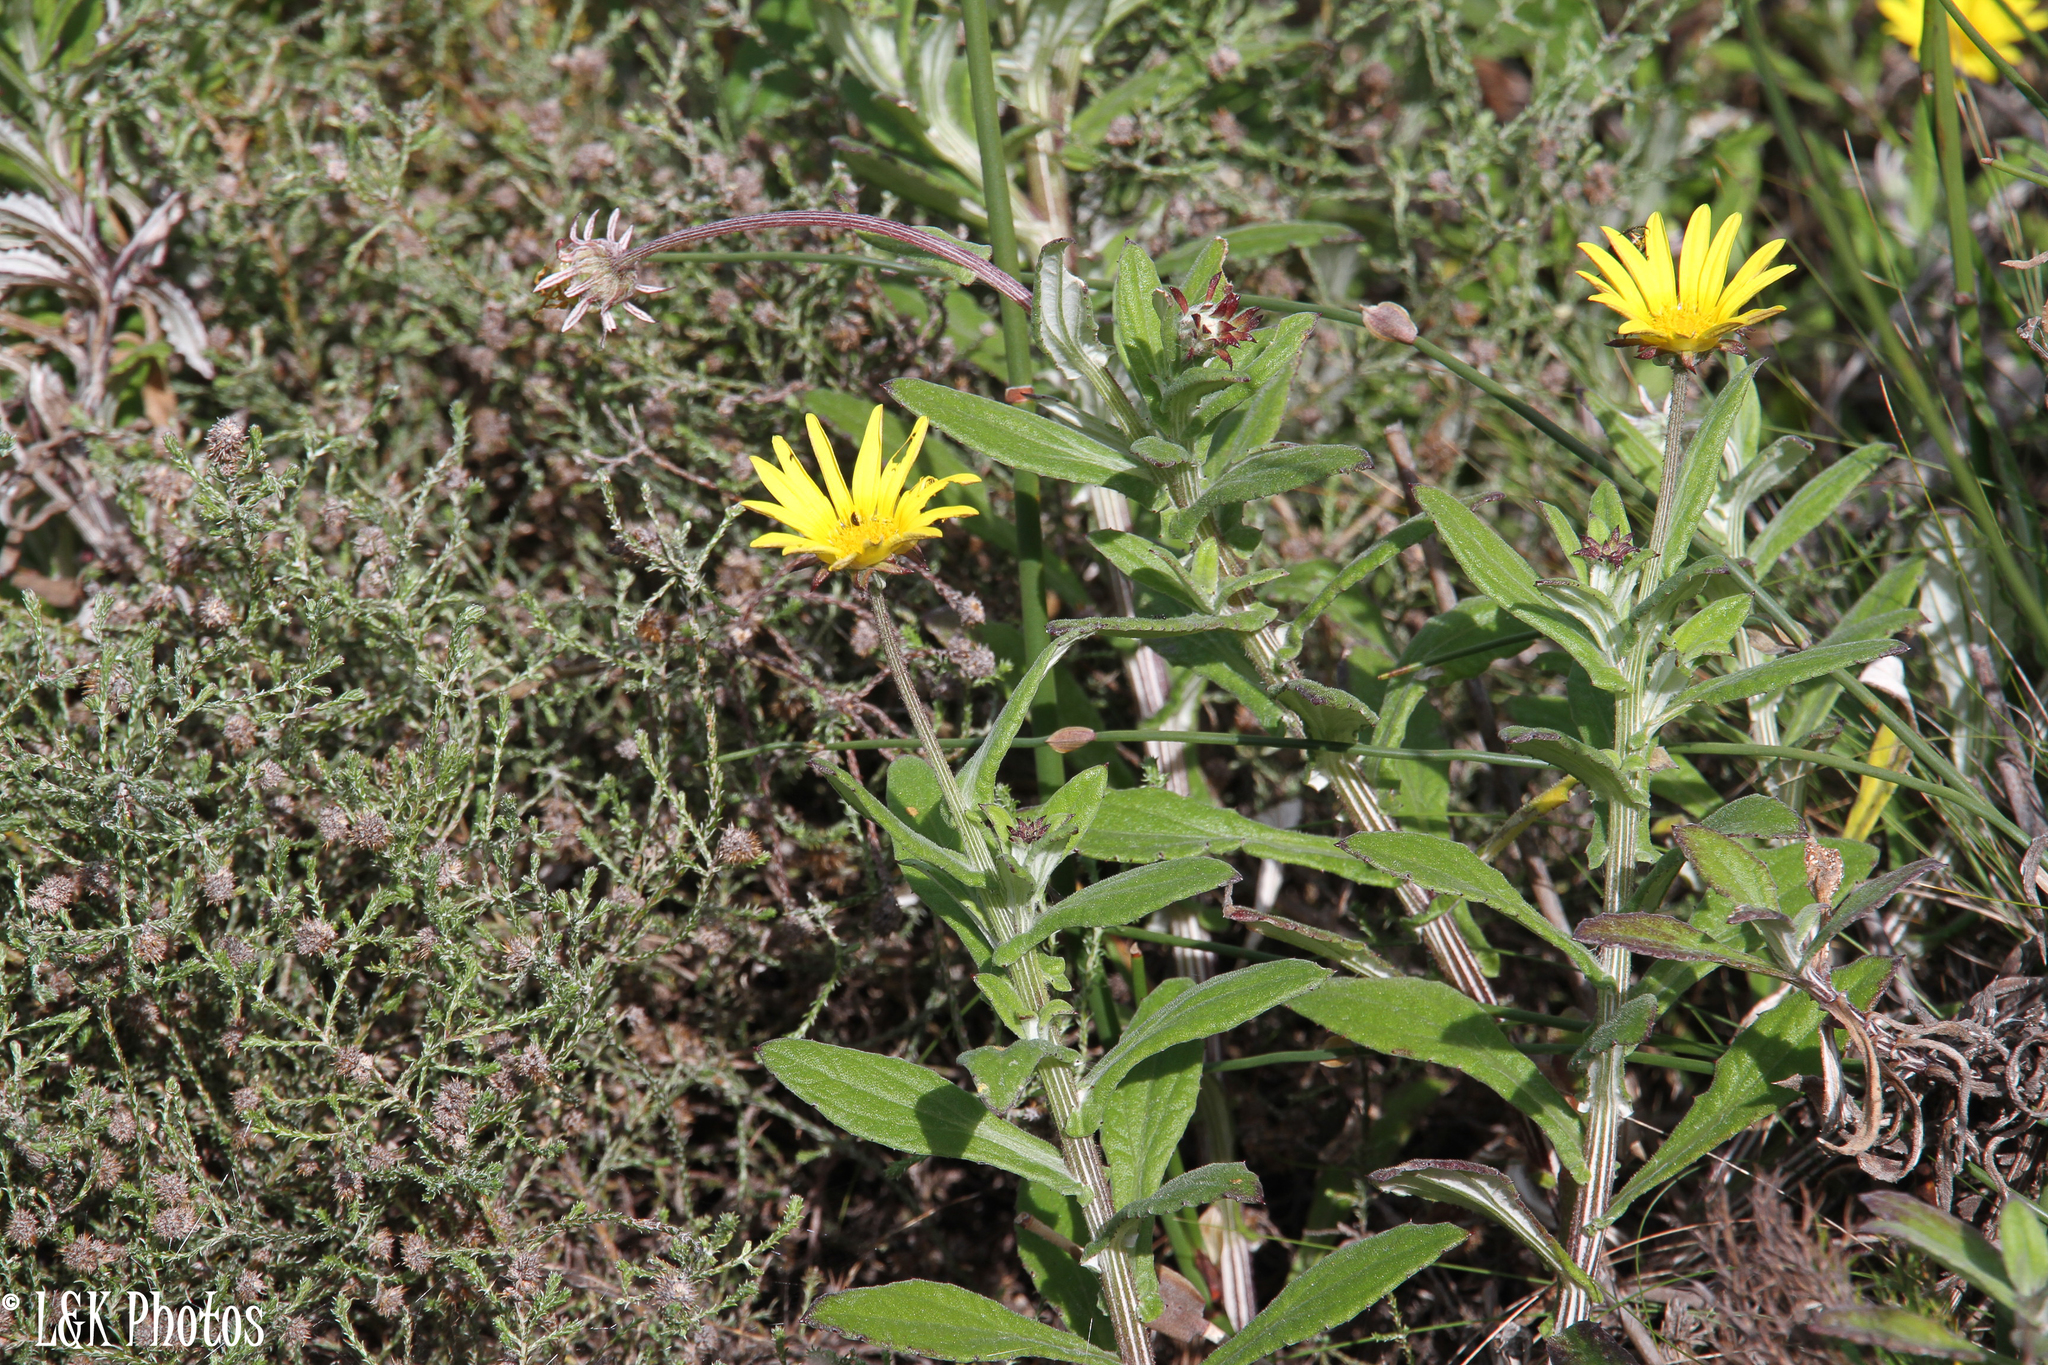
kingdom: Plantae
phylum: Tracheophyta
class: Magnoliopsida
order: Asterales
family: Asteraceae
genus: Arctotis
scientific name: Arctotis scabra
